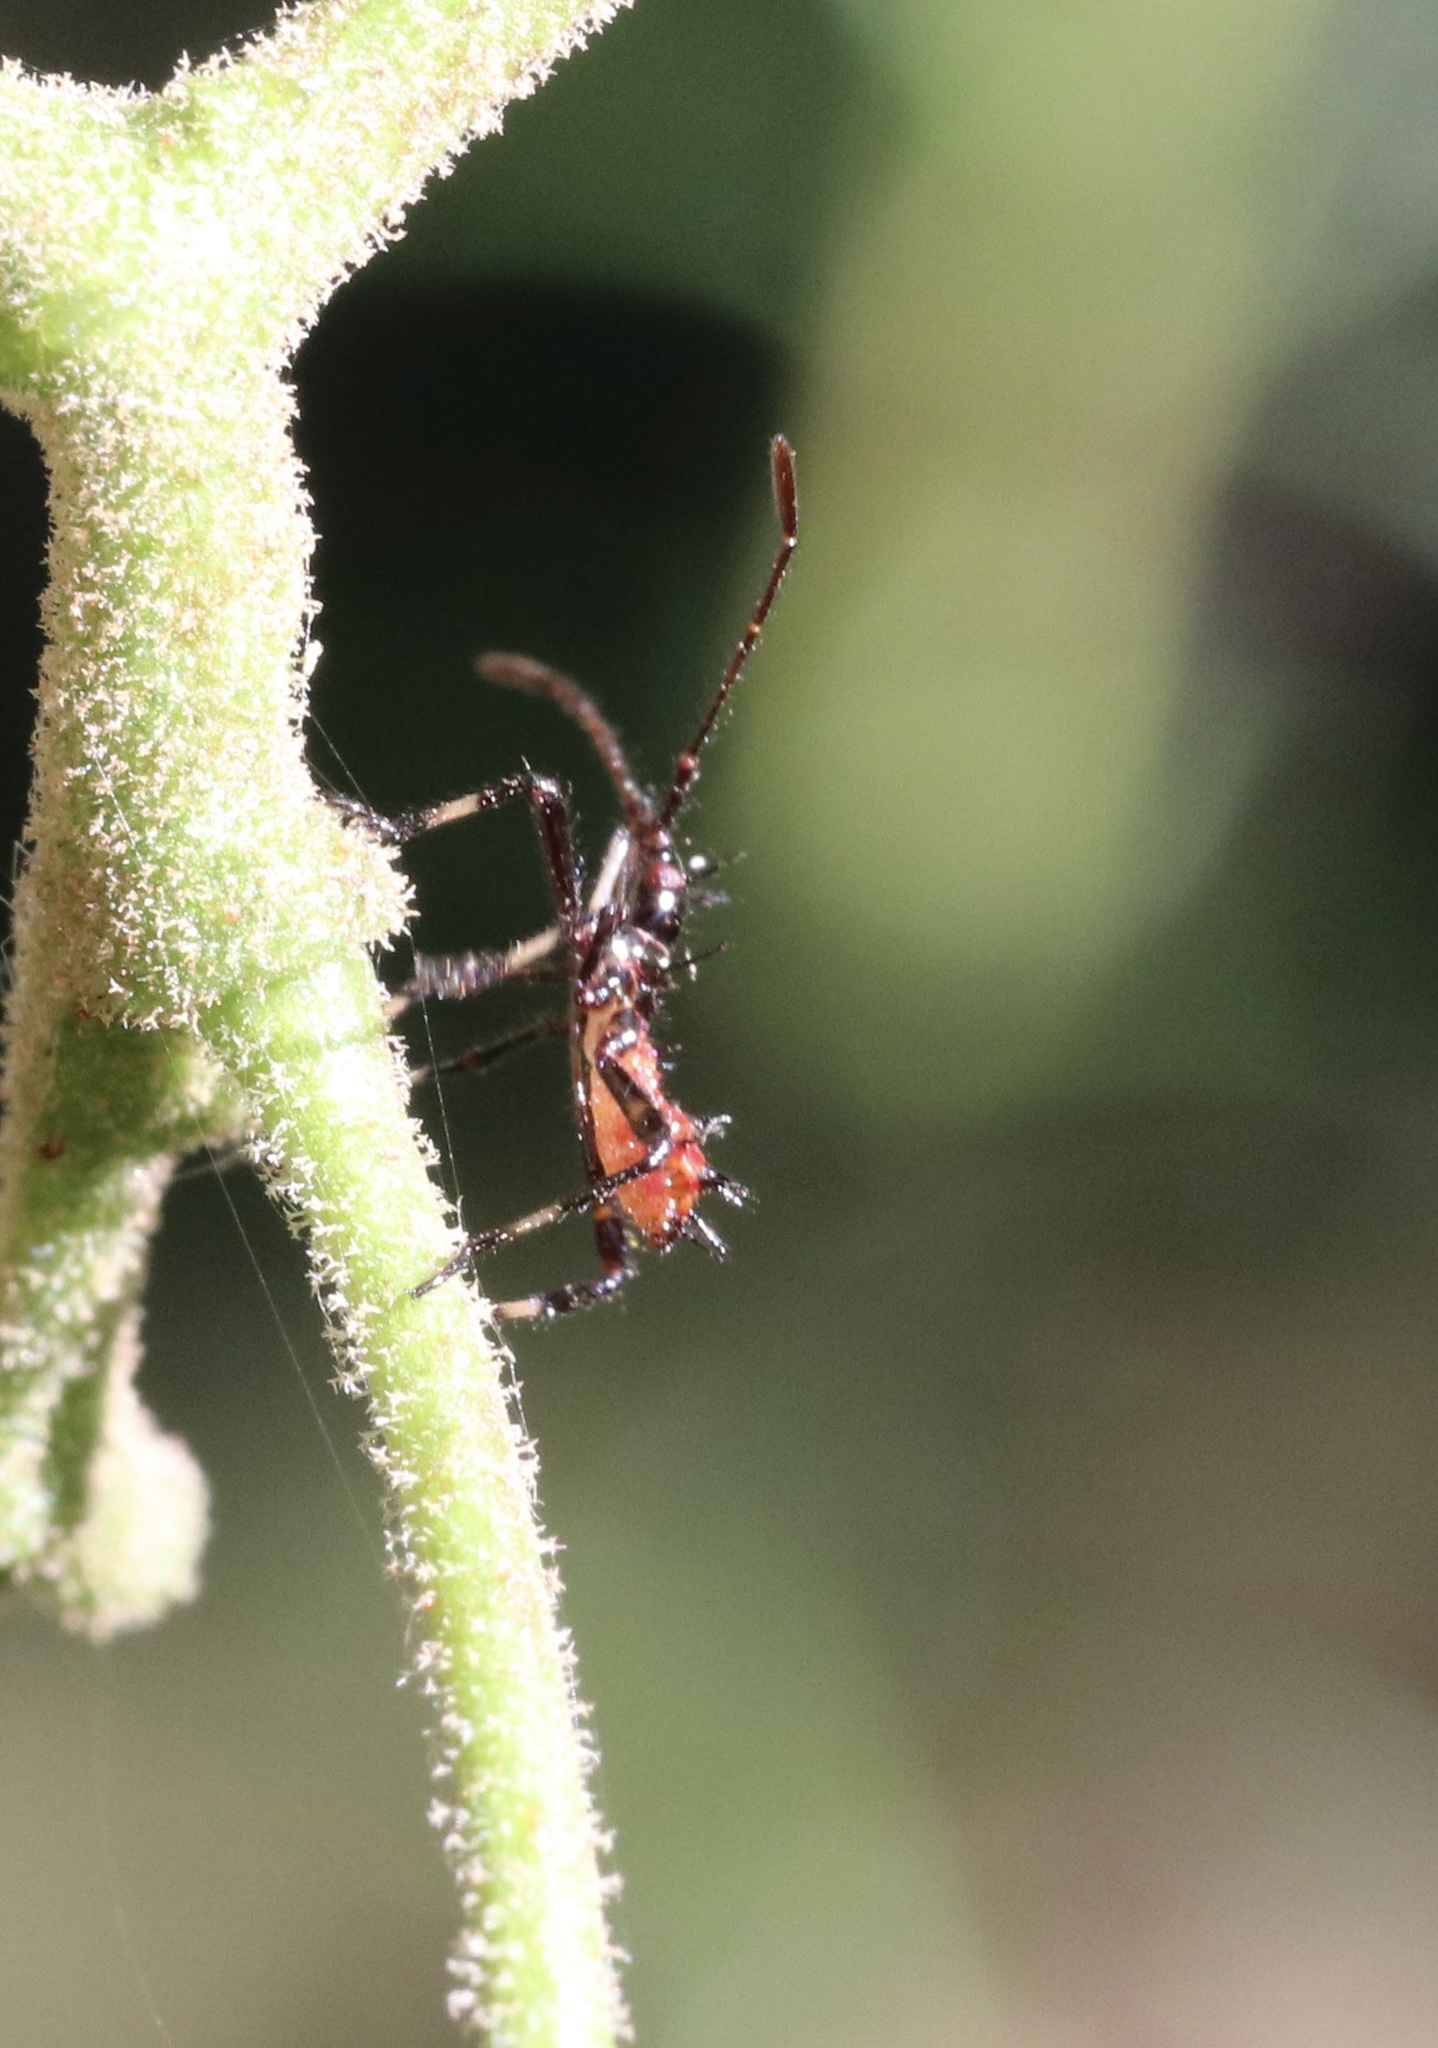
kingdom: Animalia
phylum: Arthropoda
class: Insecta
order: Hemiptera
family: Coreidae
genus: Leptoglossus
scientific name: Leptoglossus chilensis
